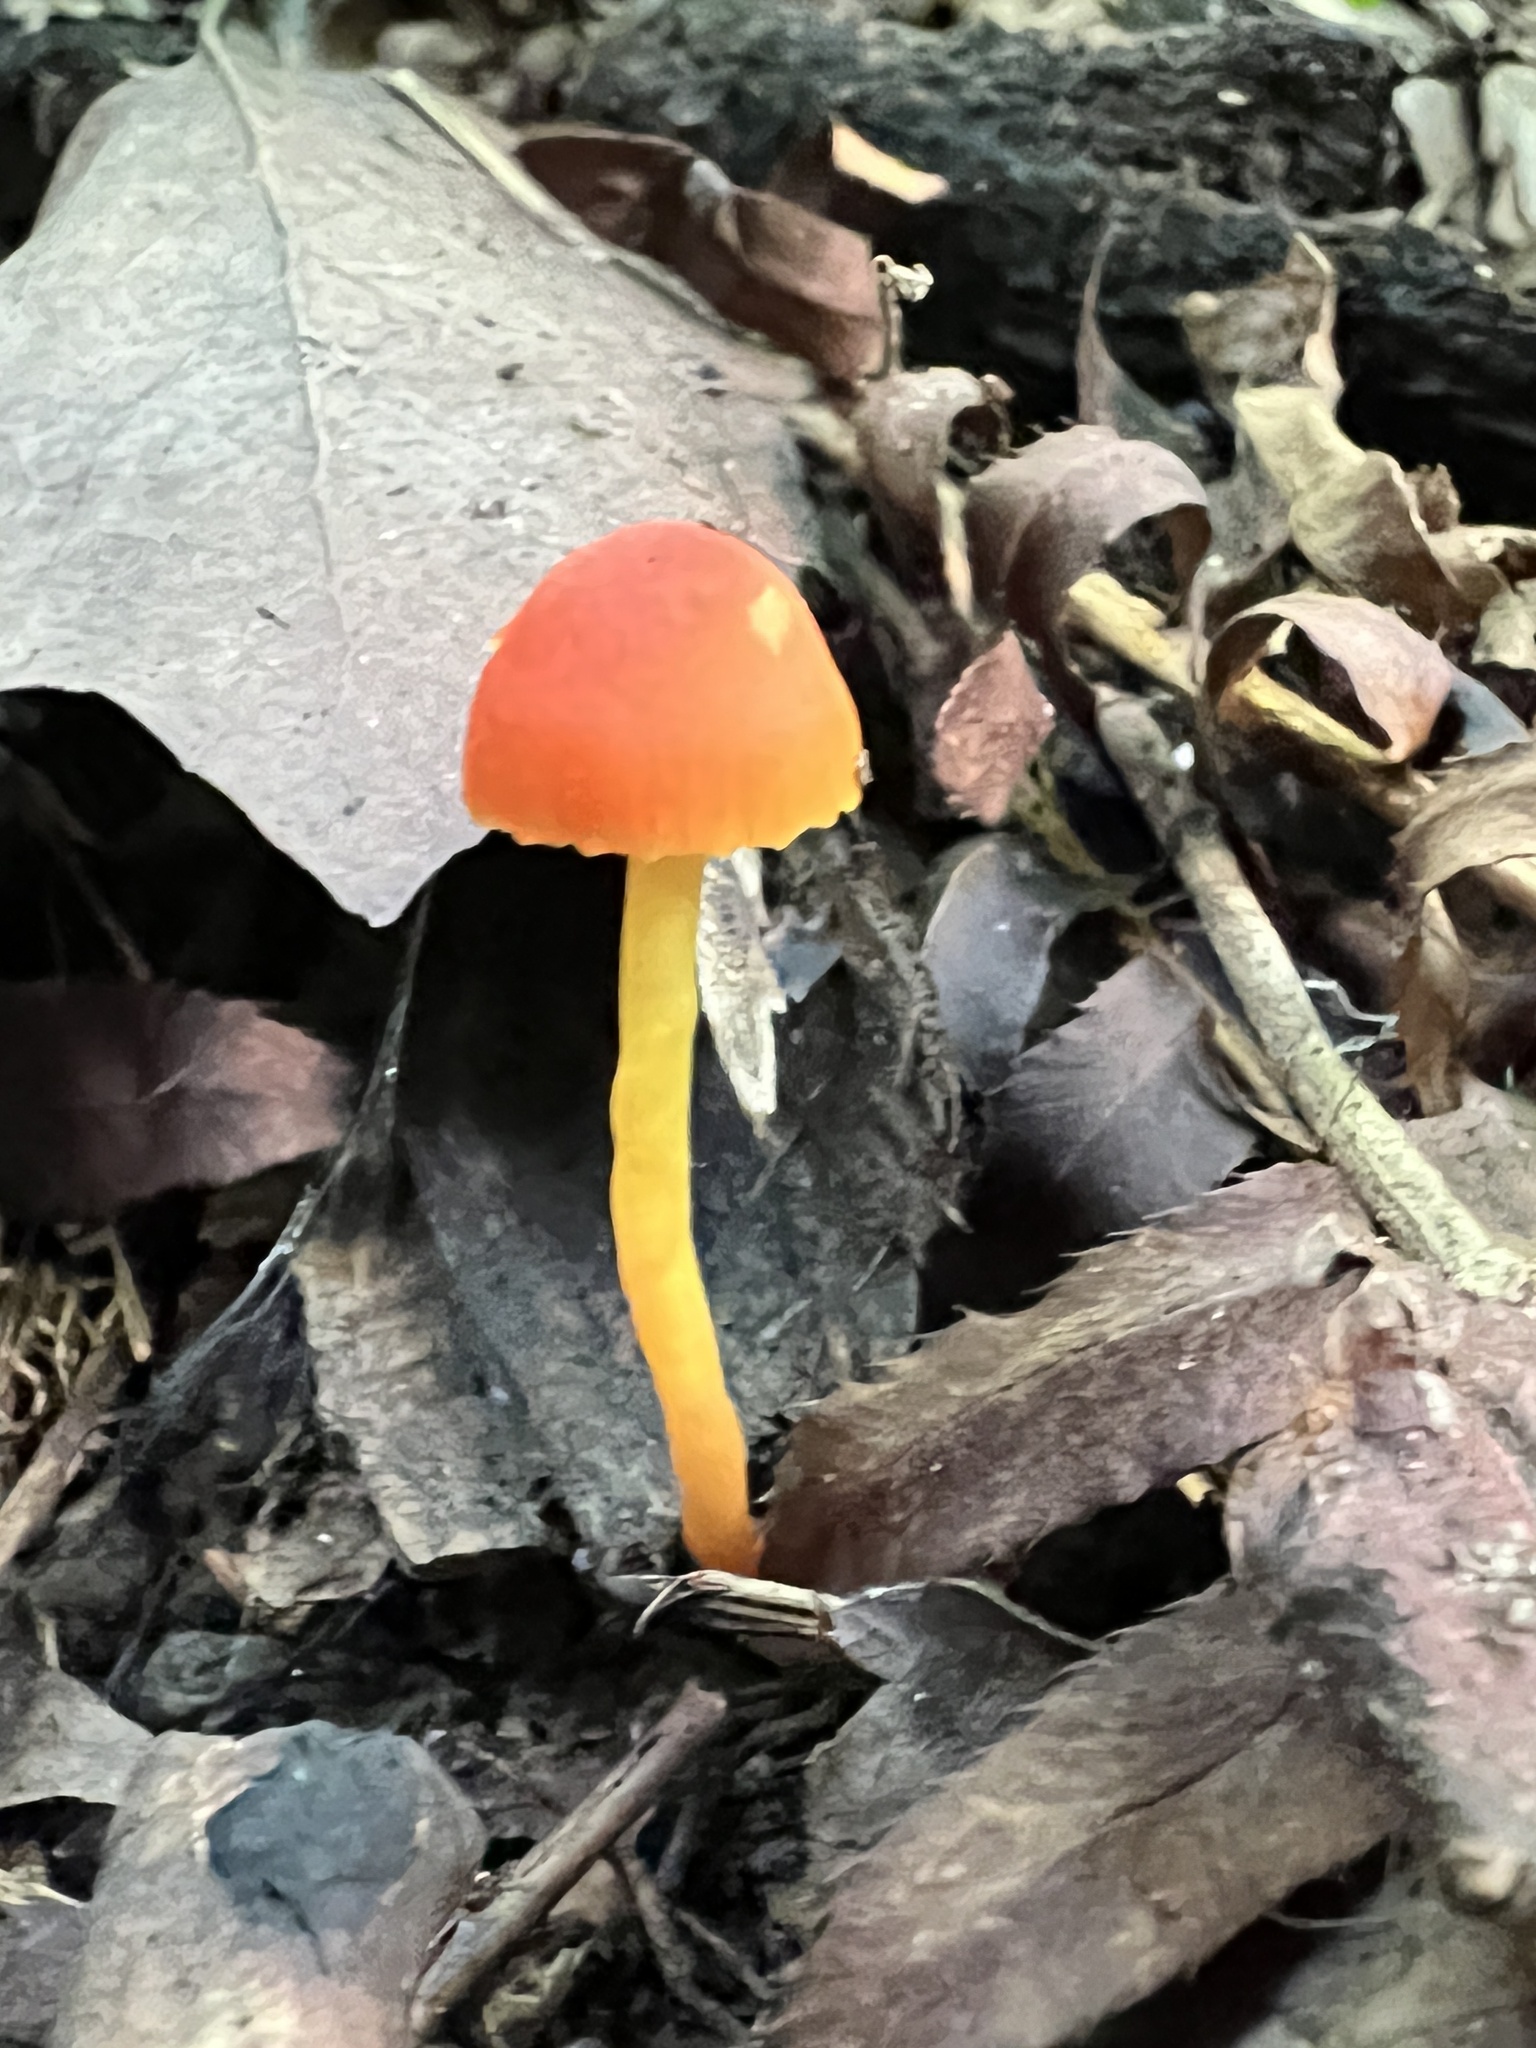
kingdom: Fungi
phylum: Basidiomycota
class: Agaricomycetes
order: Agaricales
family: Hygrophoraceae
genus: Hygrocybe
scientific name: Hygrocybe mucronella
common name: Bitter waxcap
